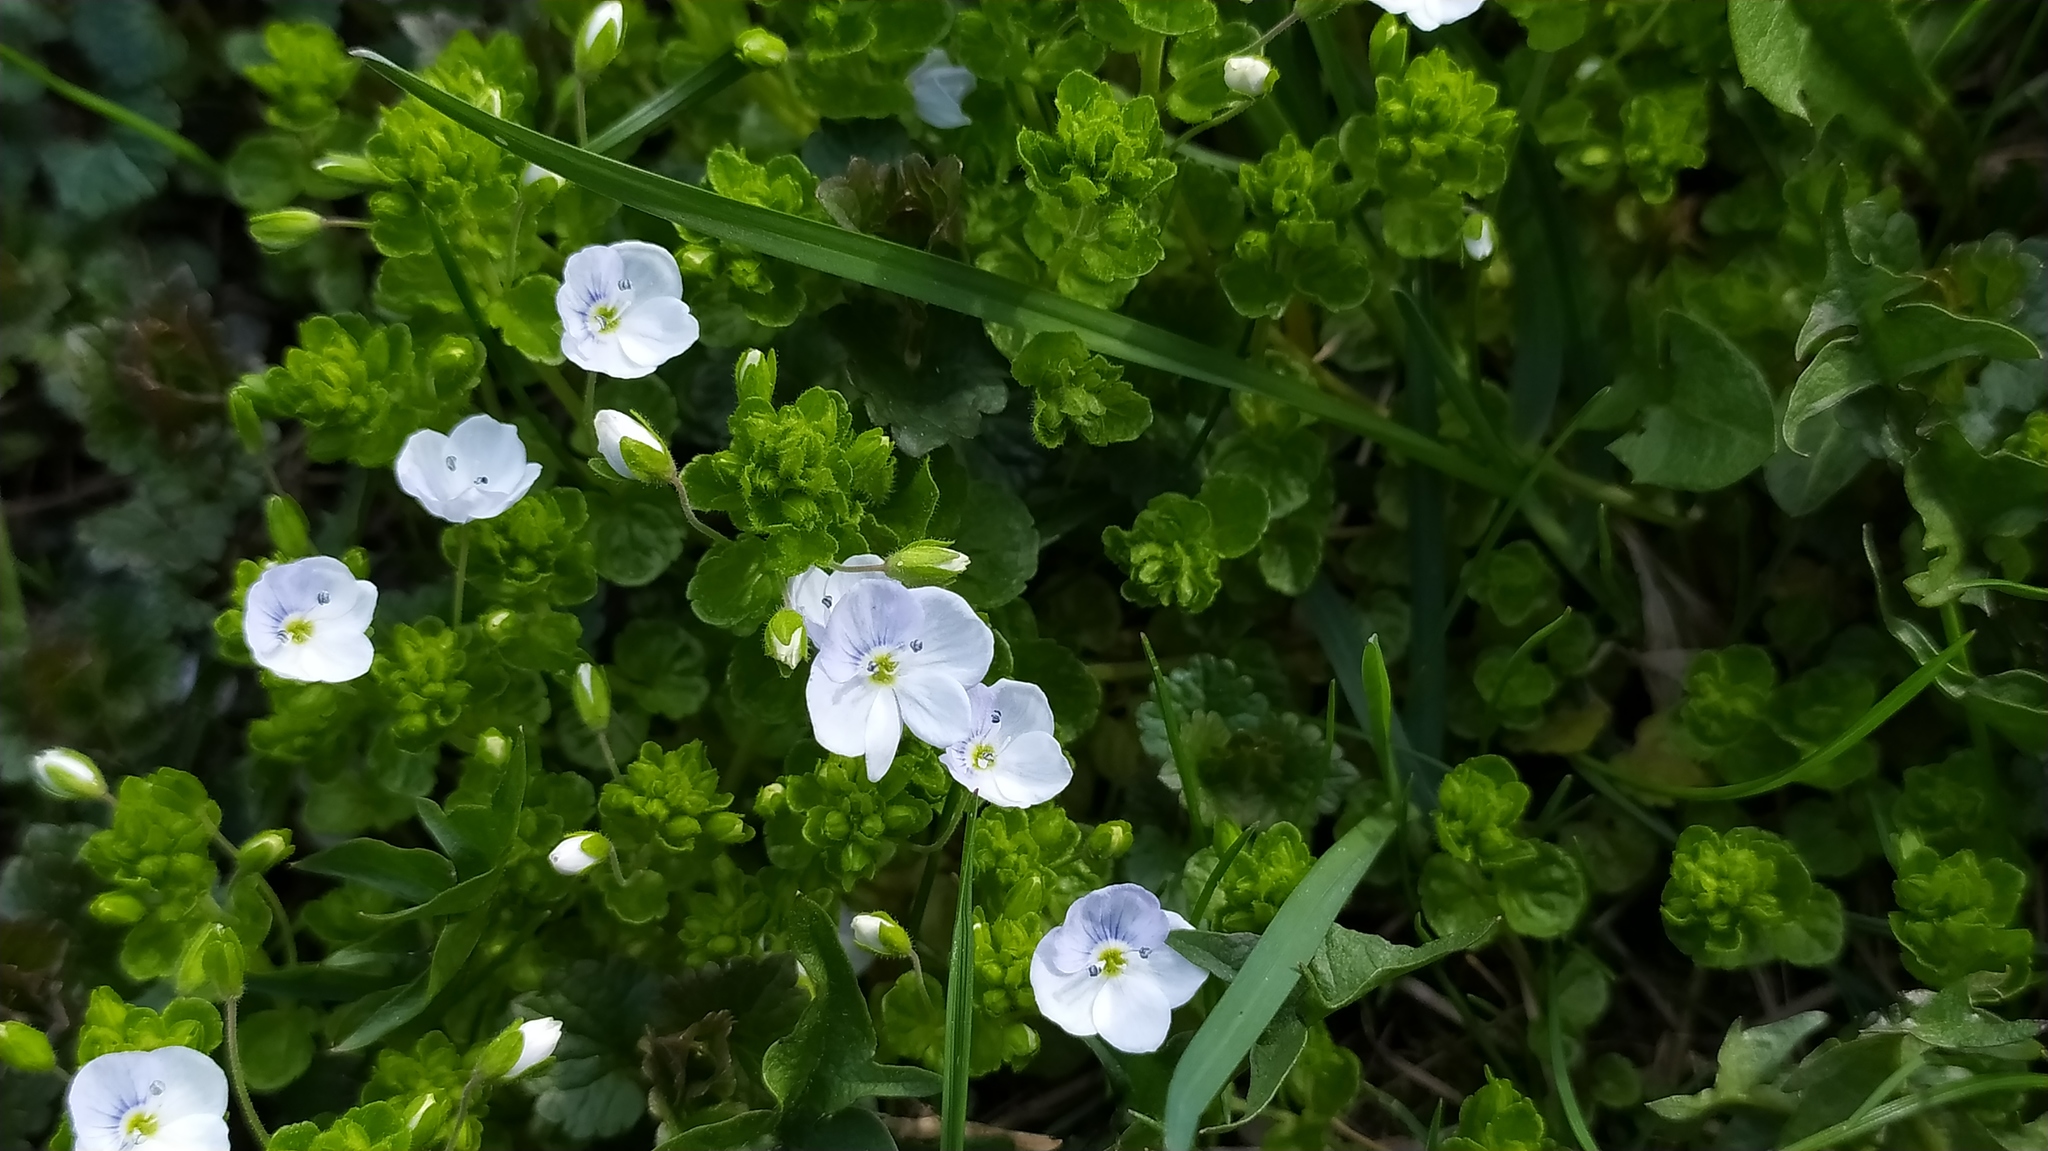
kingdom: Plantae
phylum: Tracheophyta
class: Magnoliopsida
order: Lamiales
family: Plantaginaceae
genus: Veronica
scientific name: Veronica filiformis
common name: Slender speedwell
